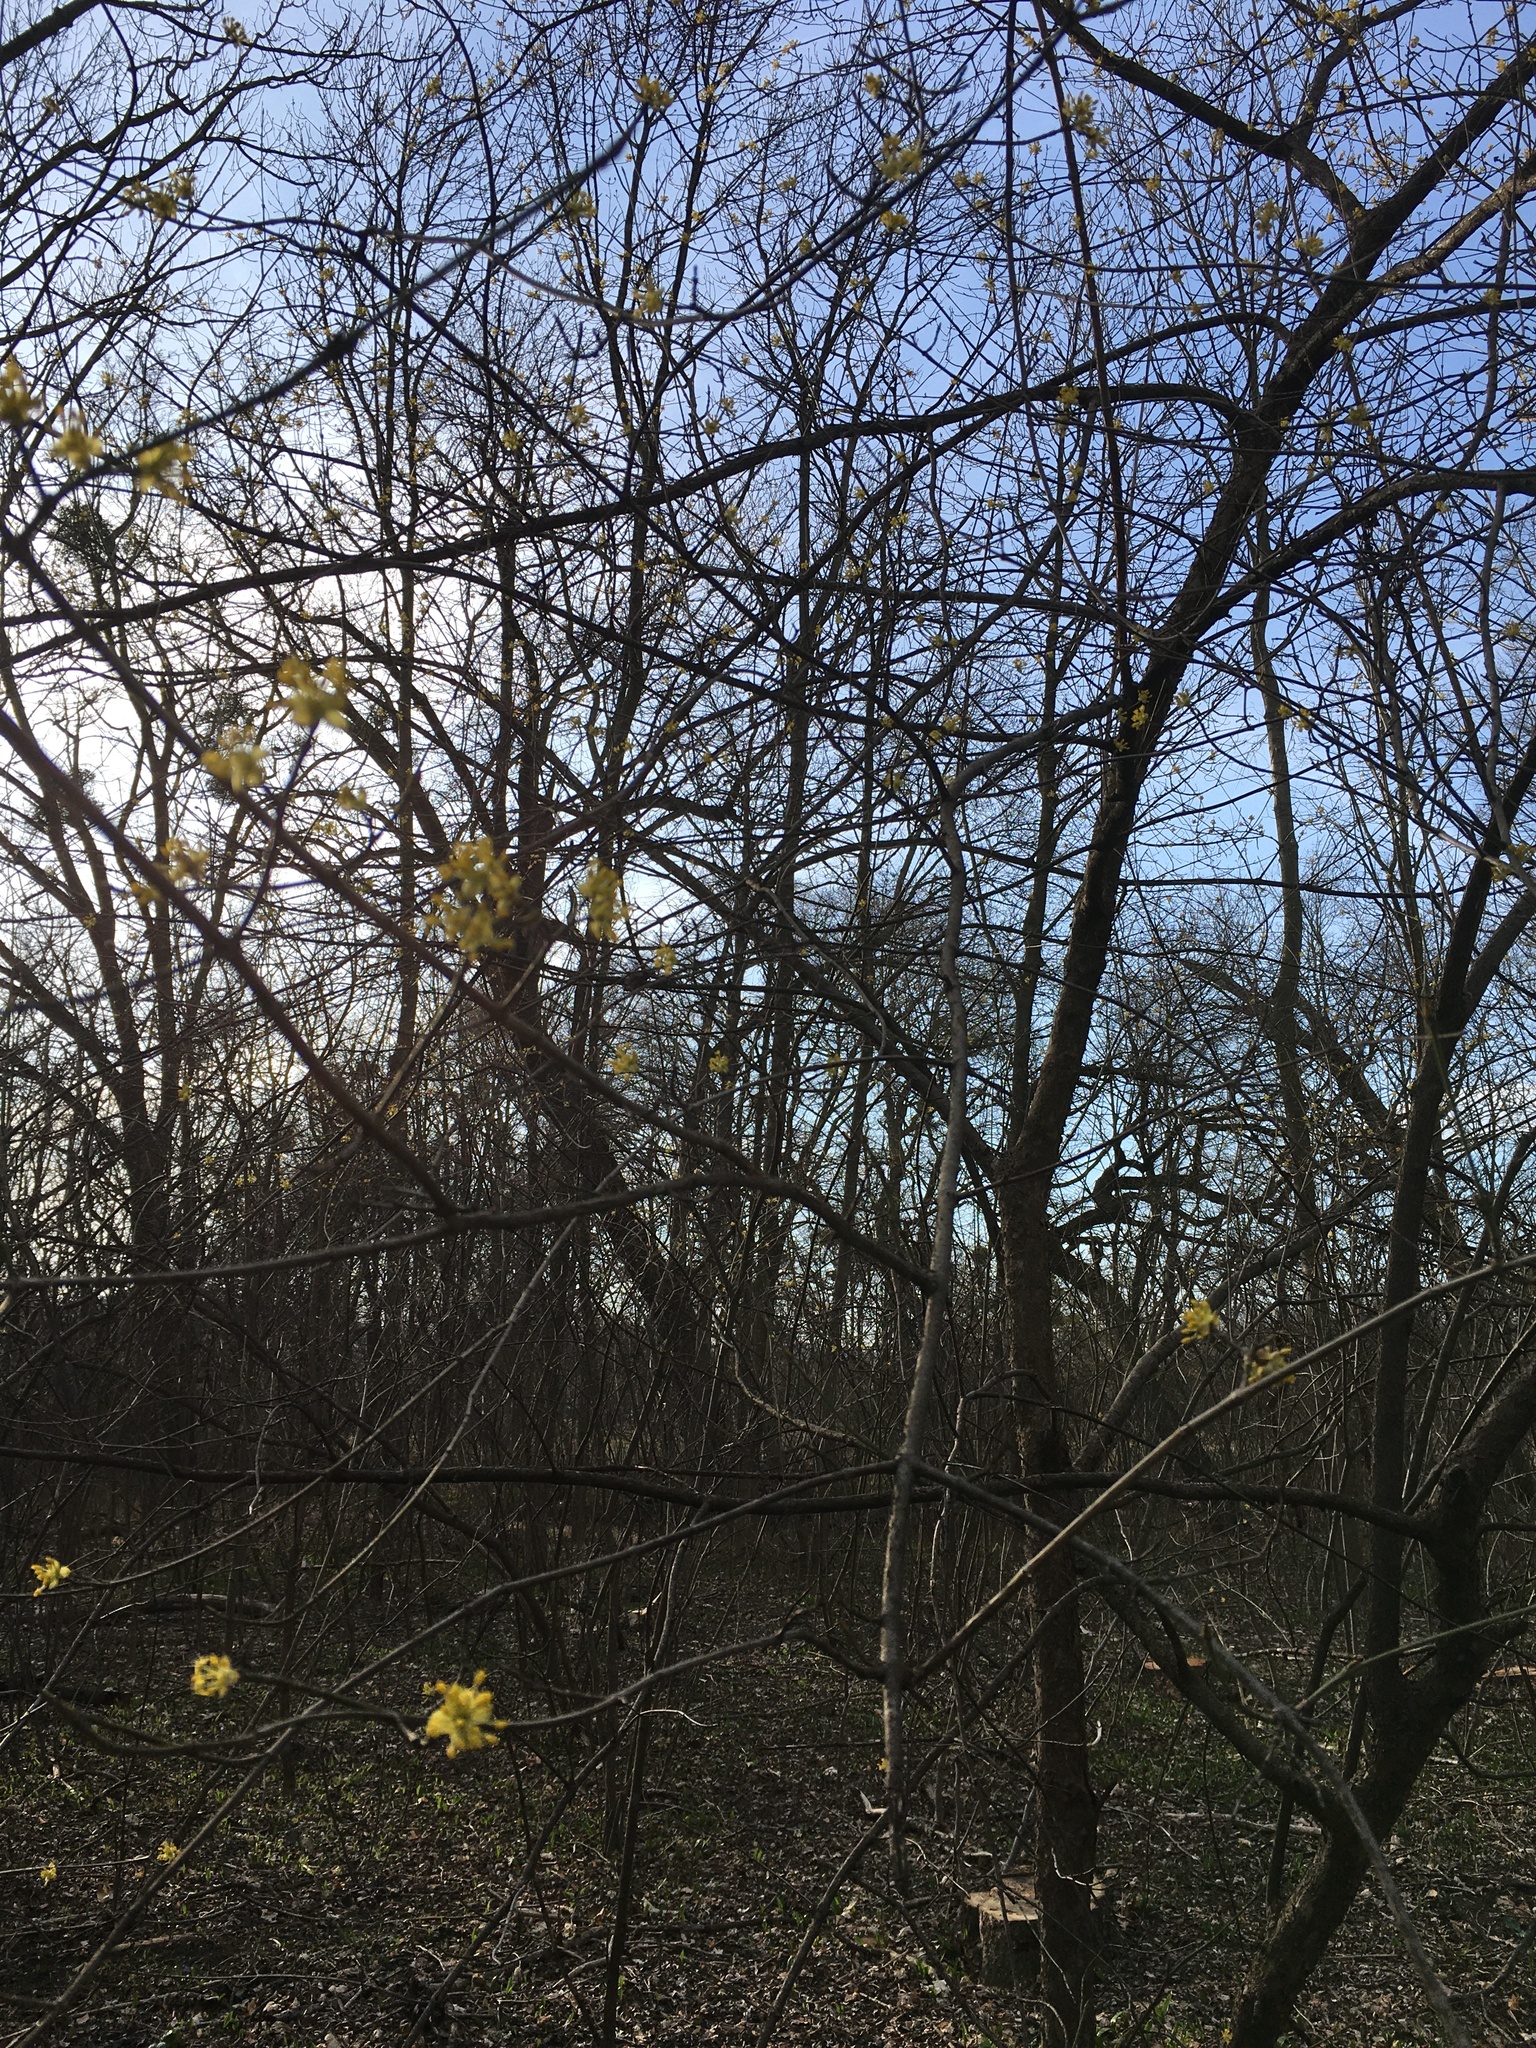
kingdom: Plantae
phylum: Tracheophyta
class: Magnoliopsida
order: Cornales
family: Cornaceae
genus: Cornus
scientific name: Cornus mas
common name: Cornelian-cherry
